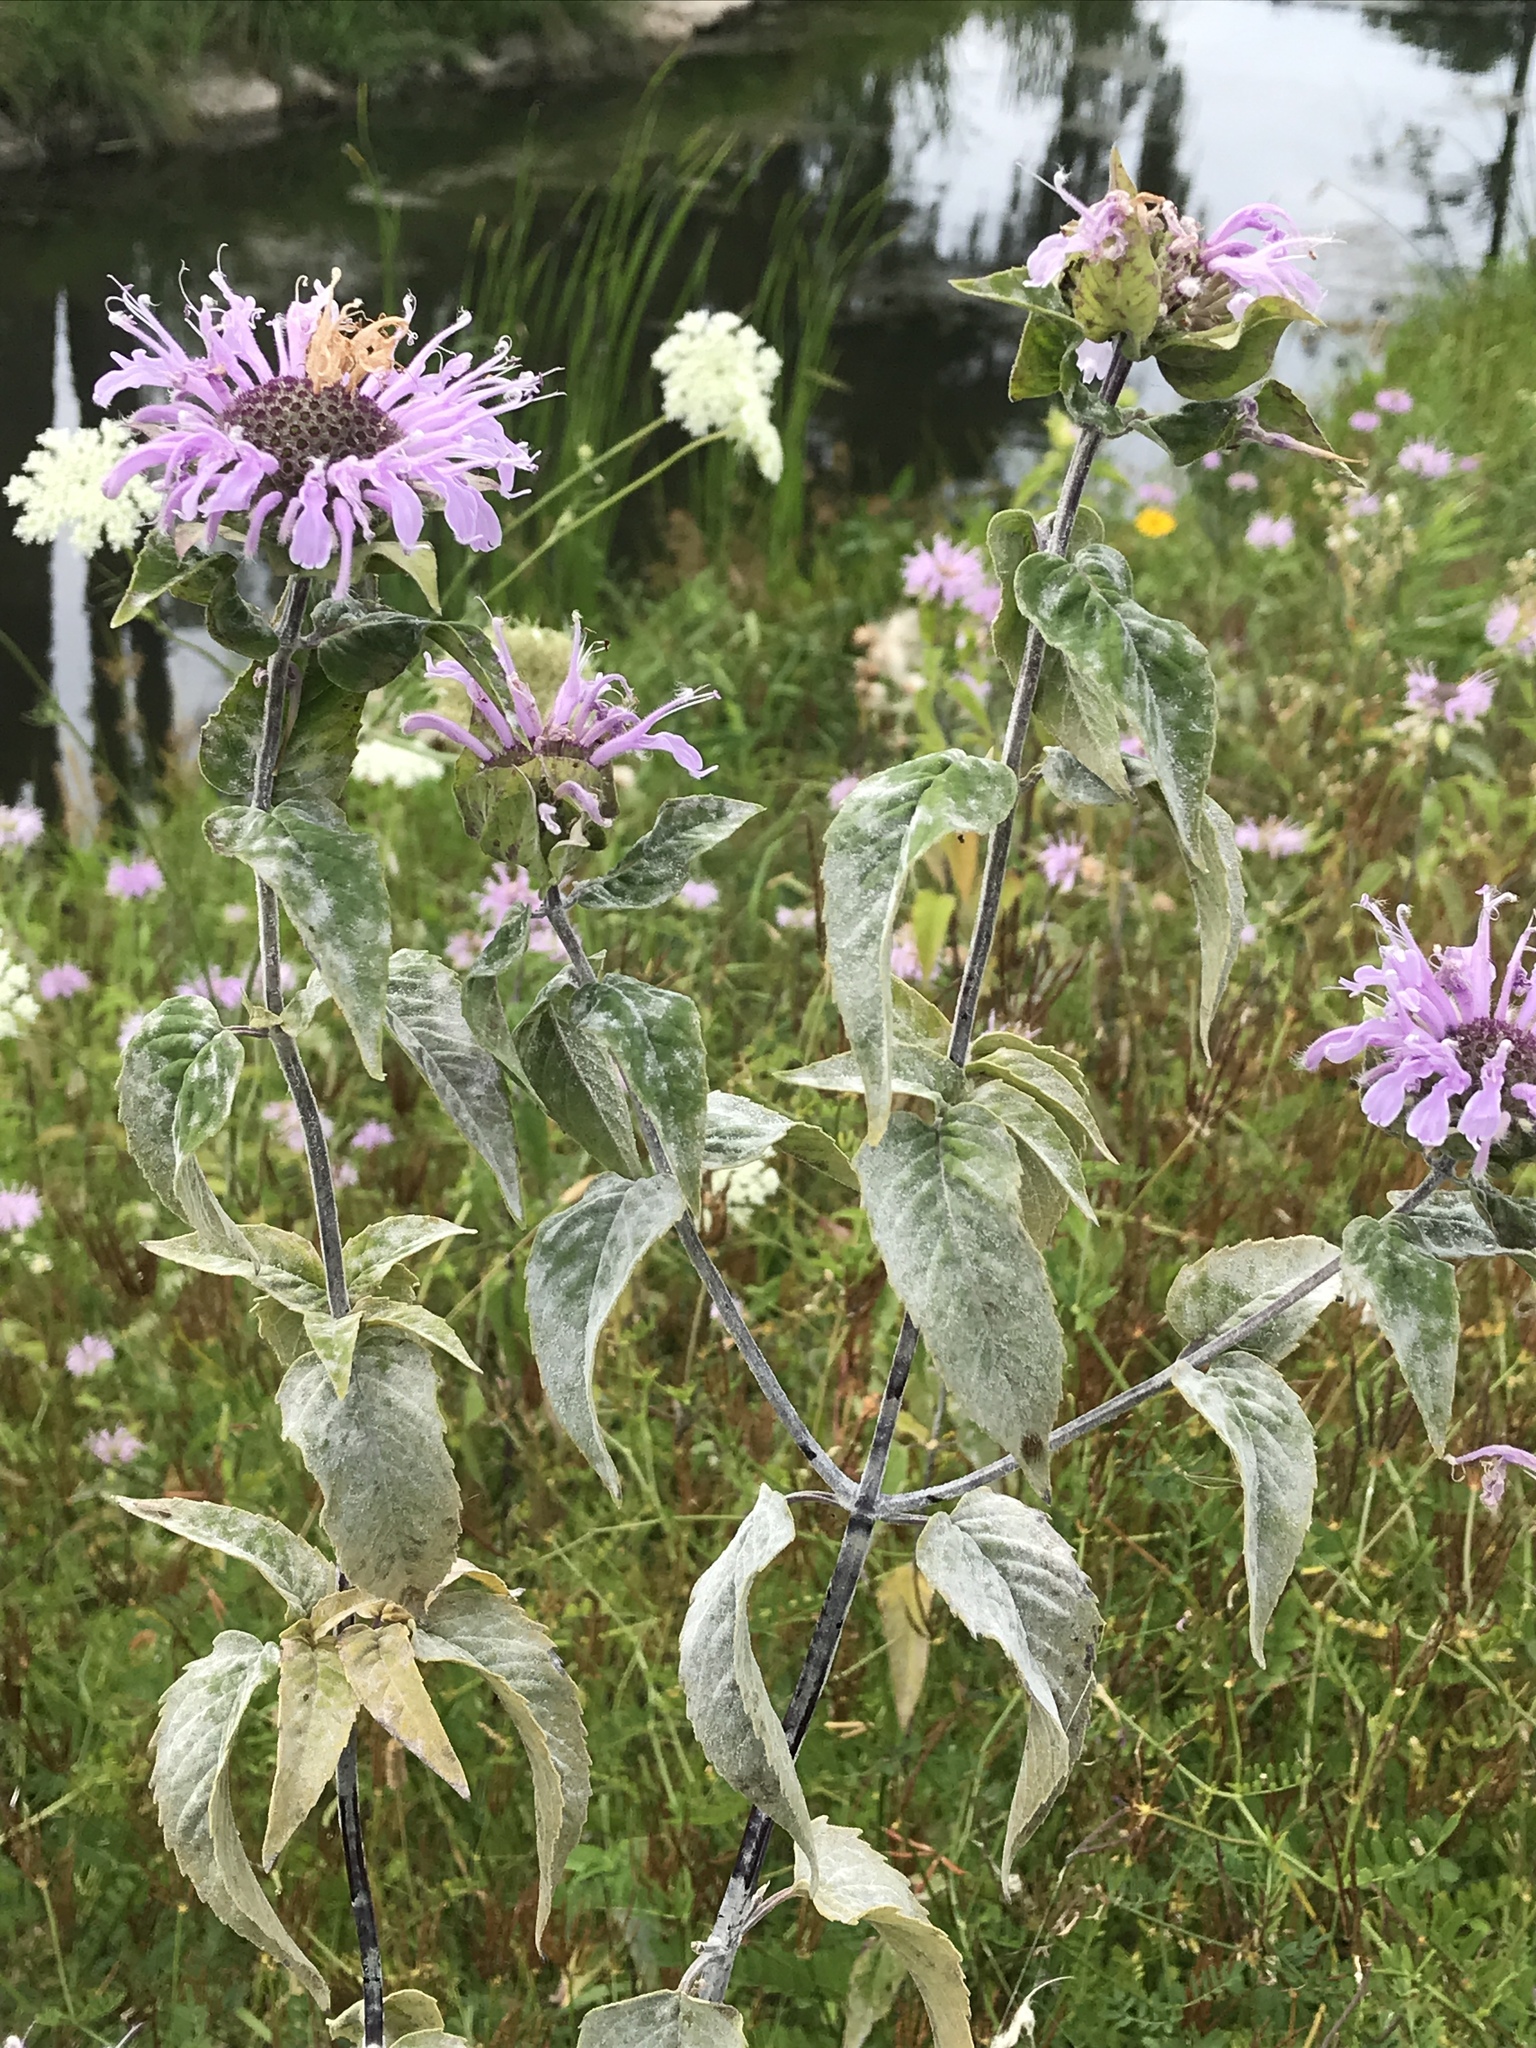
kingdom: Plantae
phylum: Tracheophyta
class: Magnoliopsida
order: Lamiales
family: Lamiaceae
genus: Monarda
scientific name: Monarda fistulosa
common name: Purple beebalm
